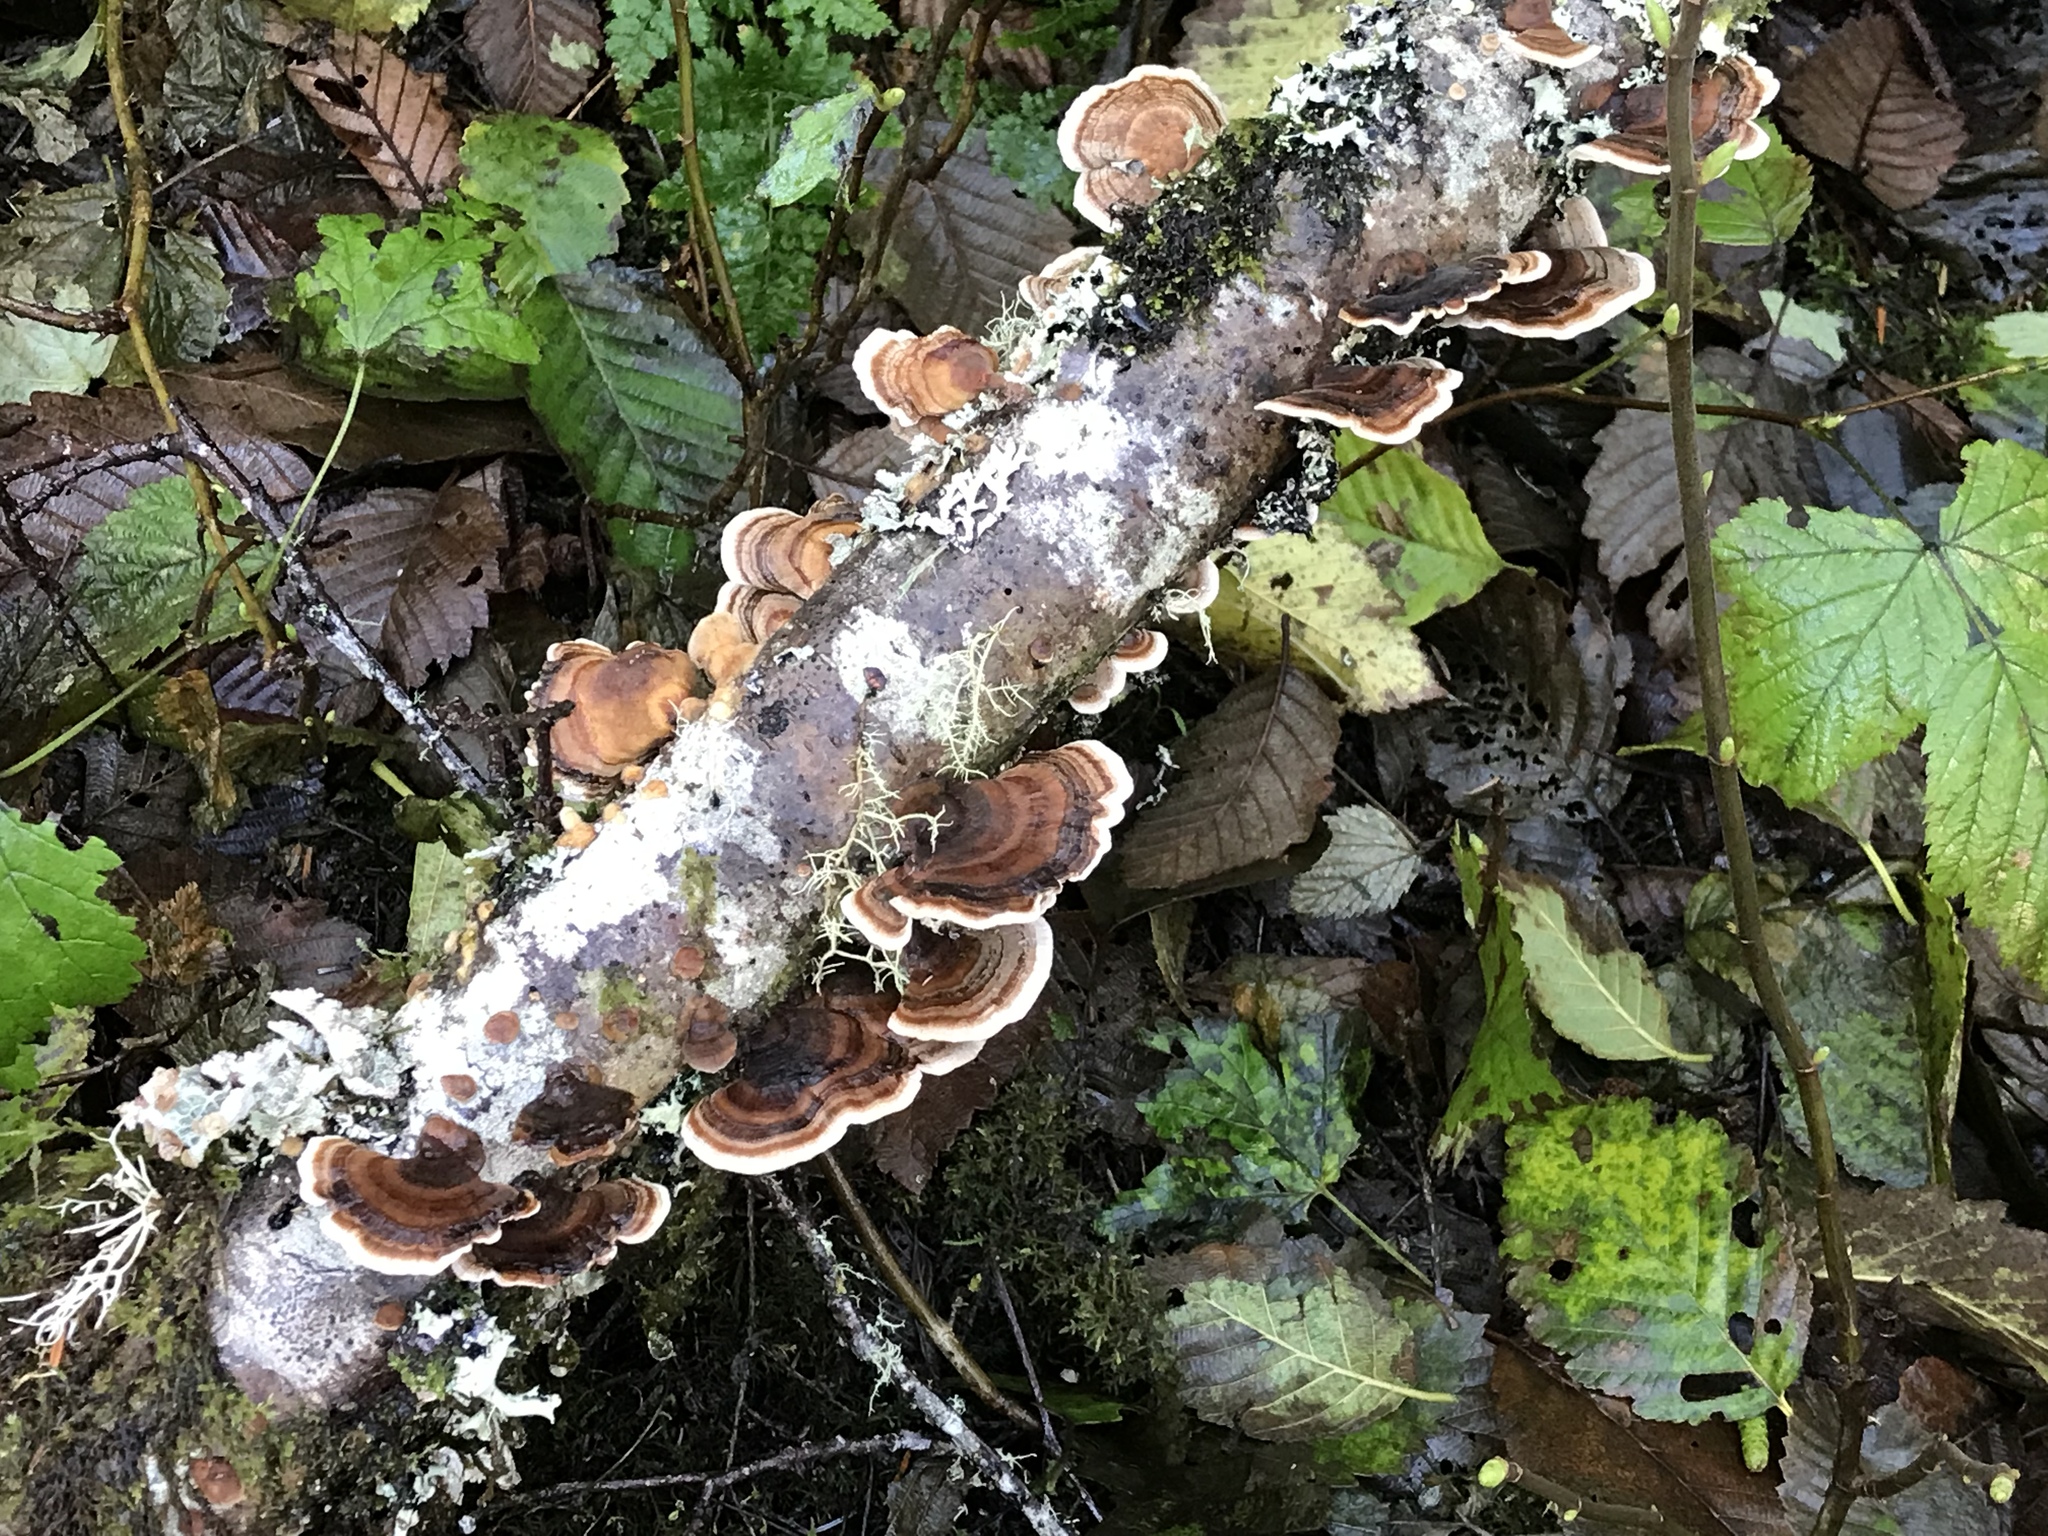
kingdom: Fungi
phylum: Basidiomycota
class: Agaricomycetes
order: Polyporales
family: Polyporaceae
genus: Trametes
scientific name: Trametes versicolor
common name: Turkeytail
